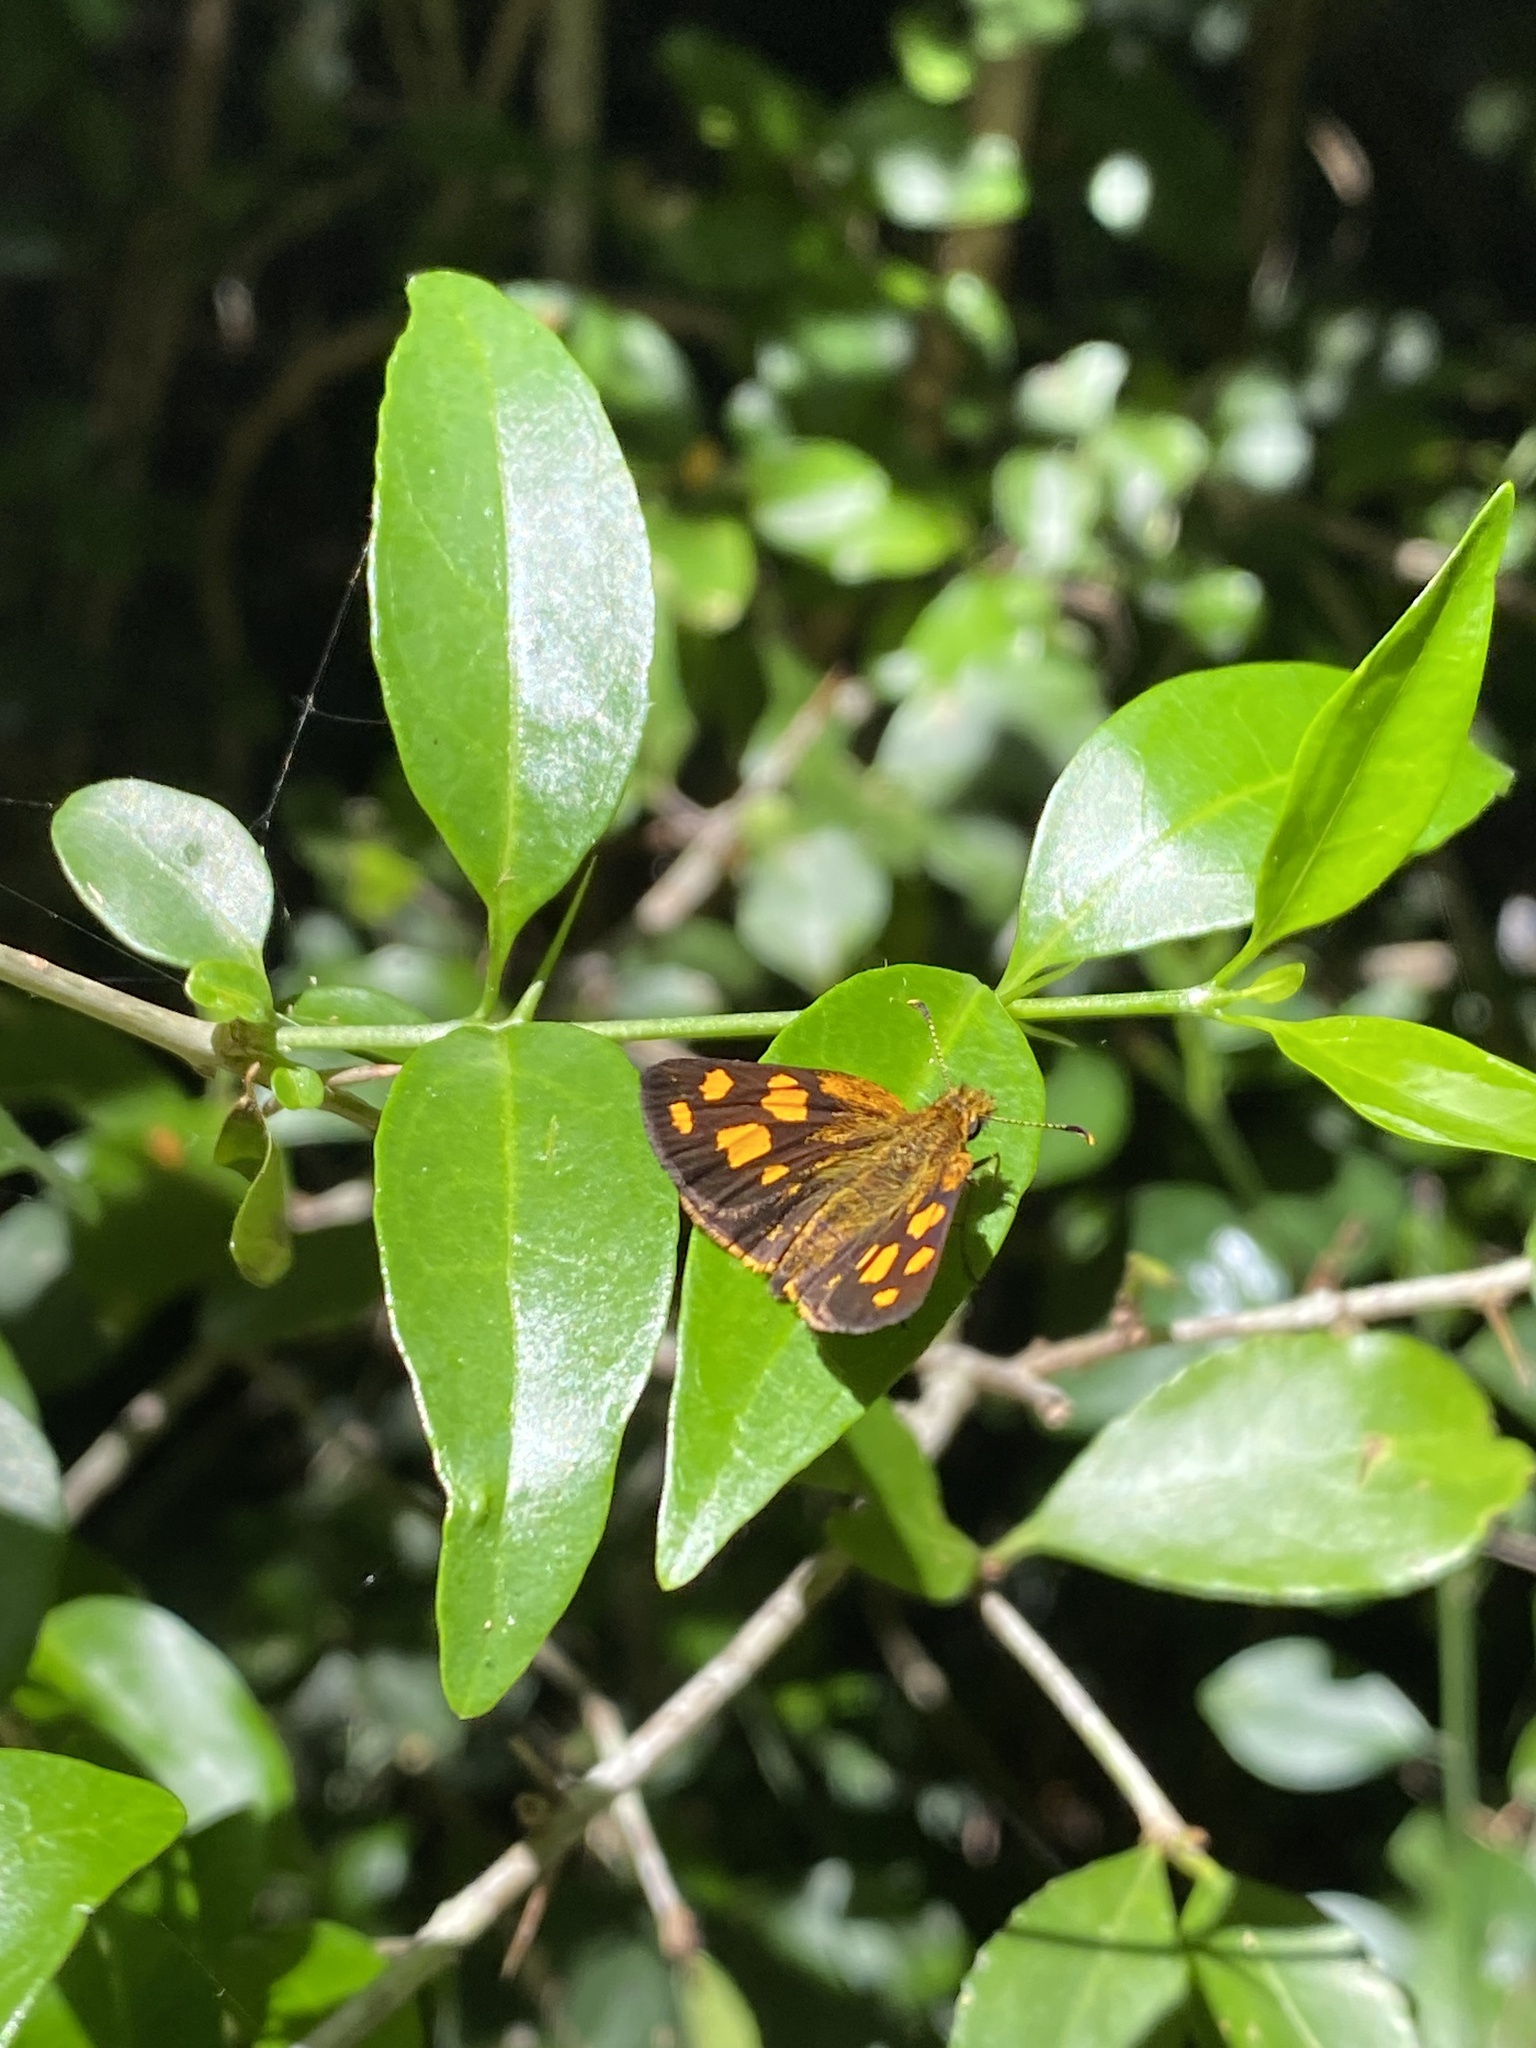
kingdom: Animalia
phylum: Arthropoda
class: Insecta
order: Lepidoptera
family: Hesperiidae
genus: Metisella
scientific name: Metisella metis
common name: Western gold-spotted sylph
